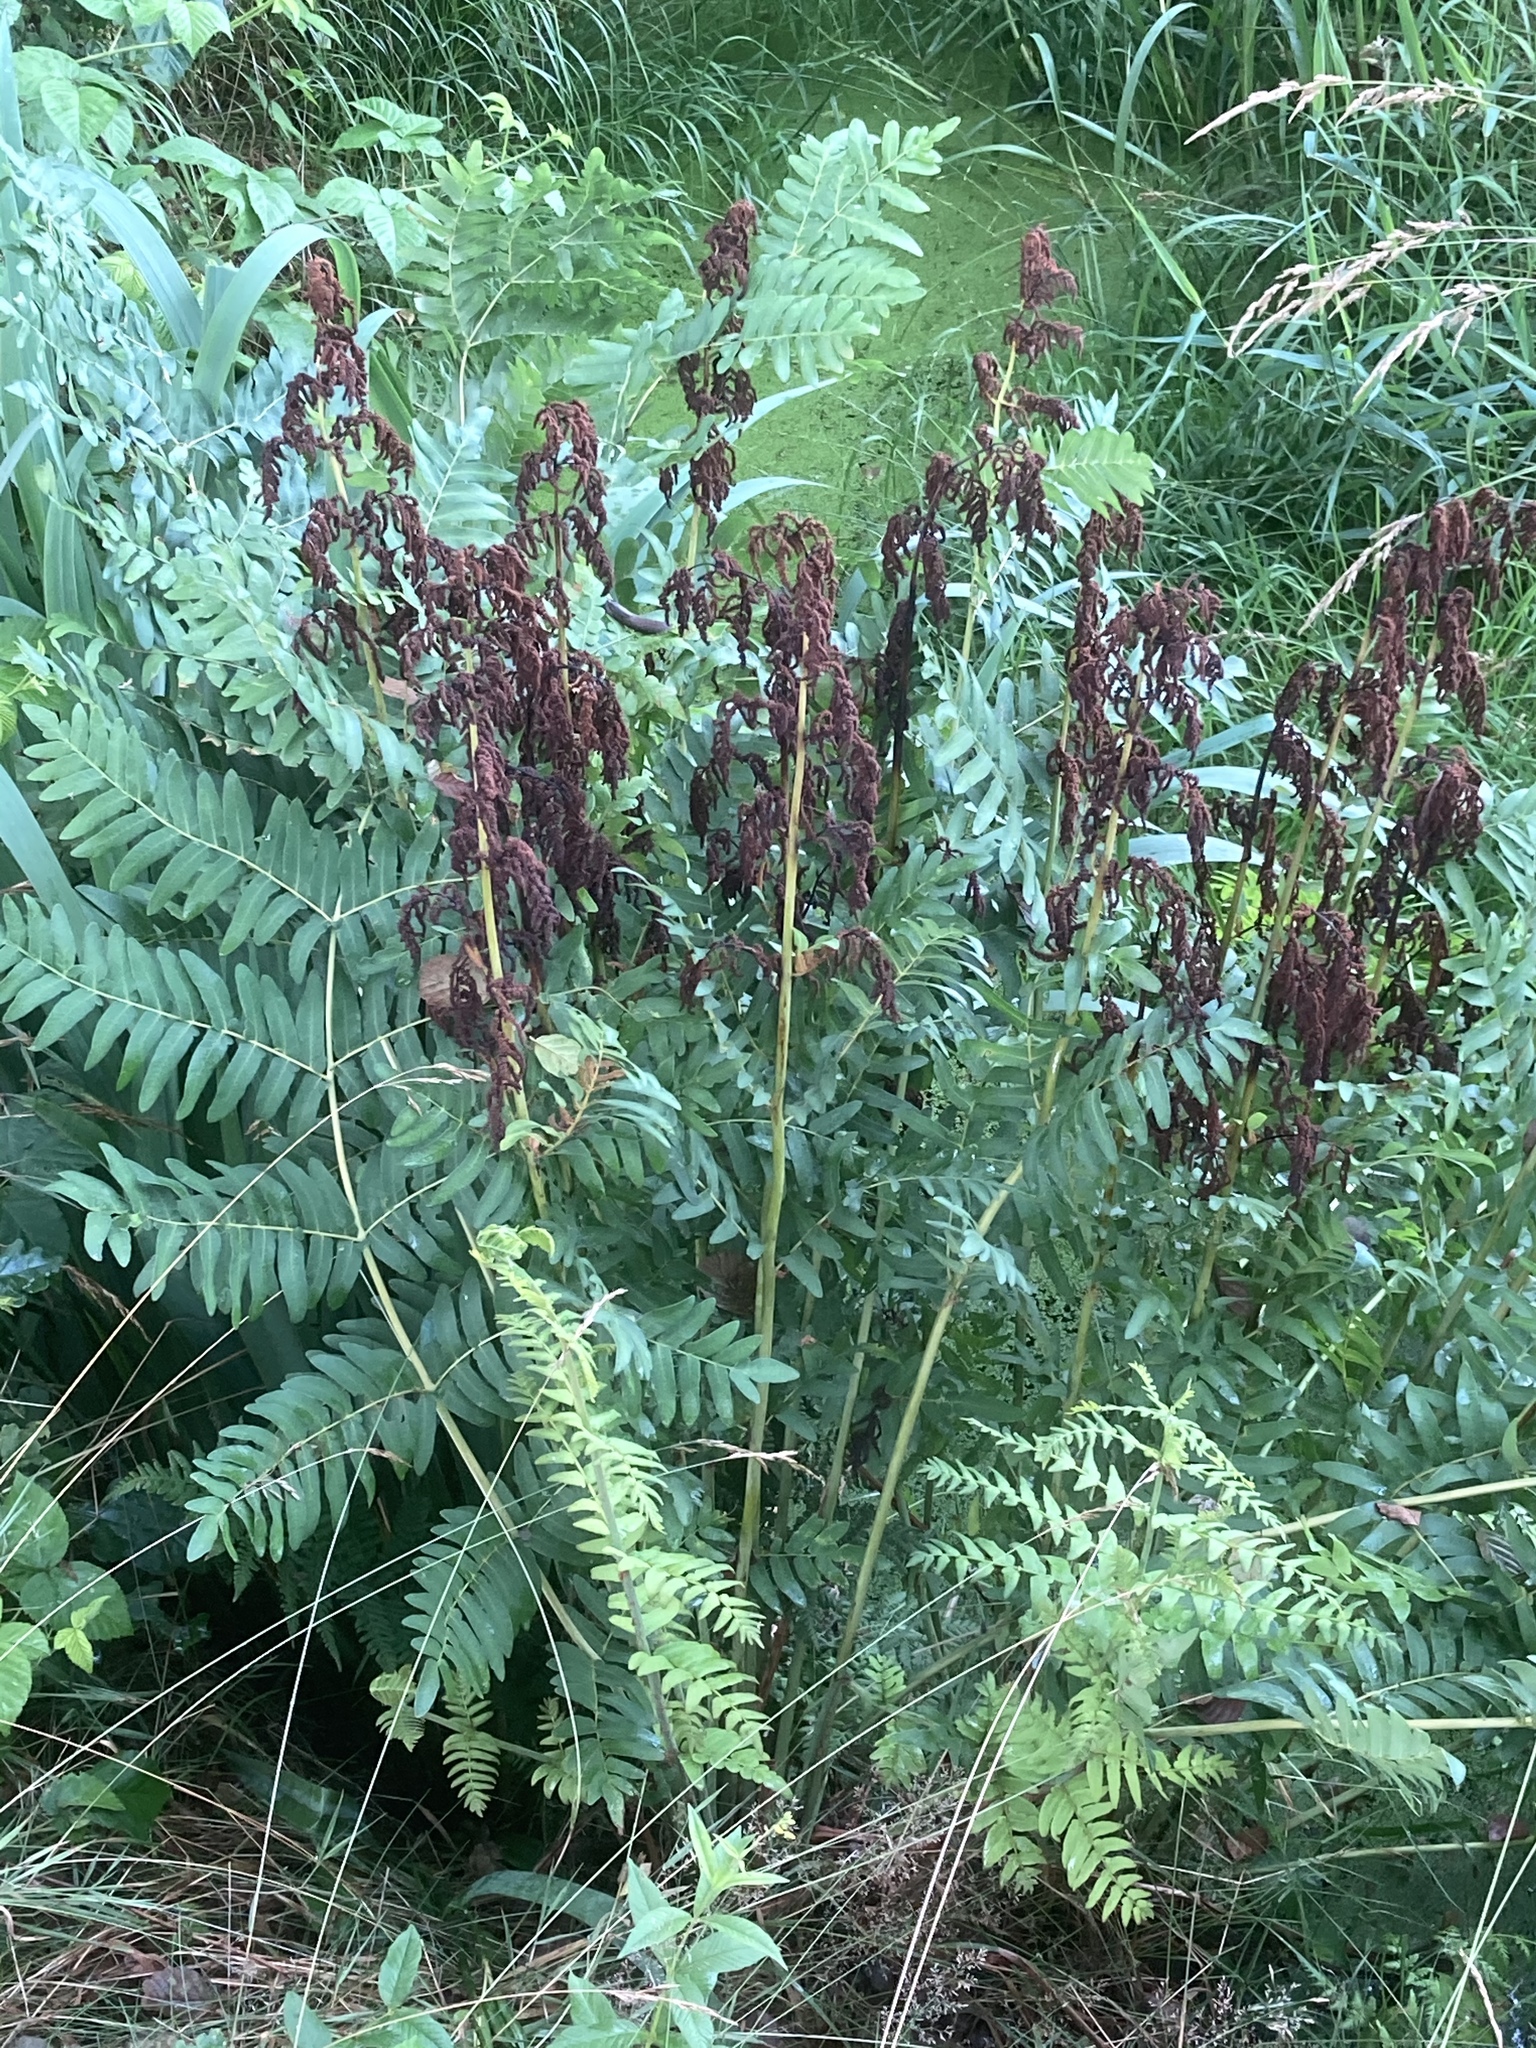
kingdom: Plantae
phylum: Tracheophyta
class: Polypodiopsida
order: Osmundales
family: Osmundaceae
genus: Osmunda
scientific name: Osmunda regalis
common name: Royal fern
